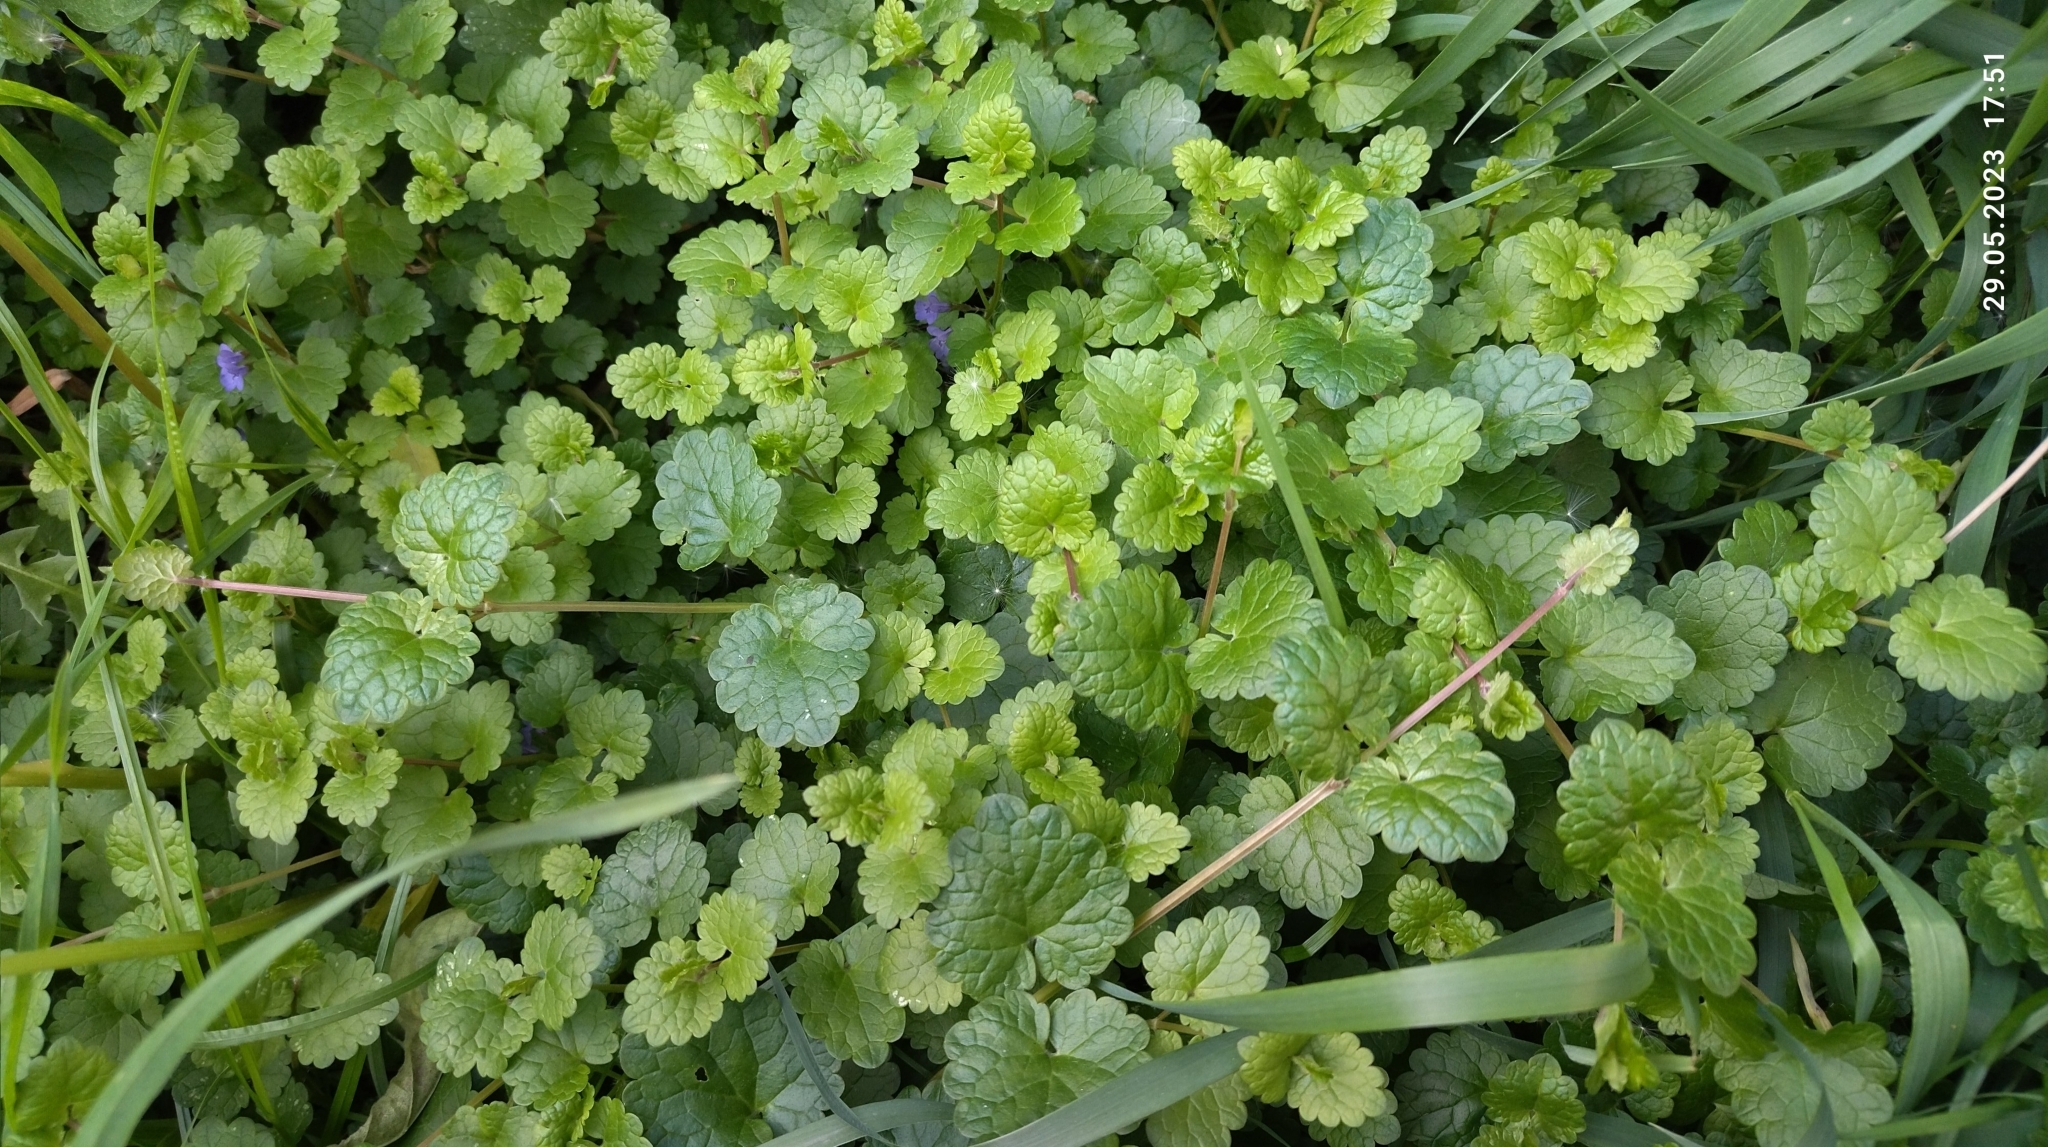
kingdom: Plantae
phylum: Tracheophyta
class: Magnoliopsida
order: Lamiales
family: Lamiaceae
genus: Glechoma
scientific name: Glechoma hederacea
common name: Ground ivy
